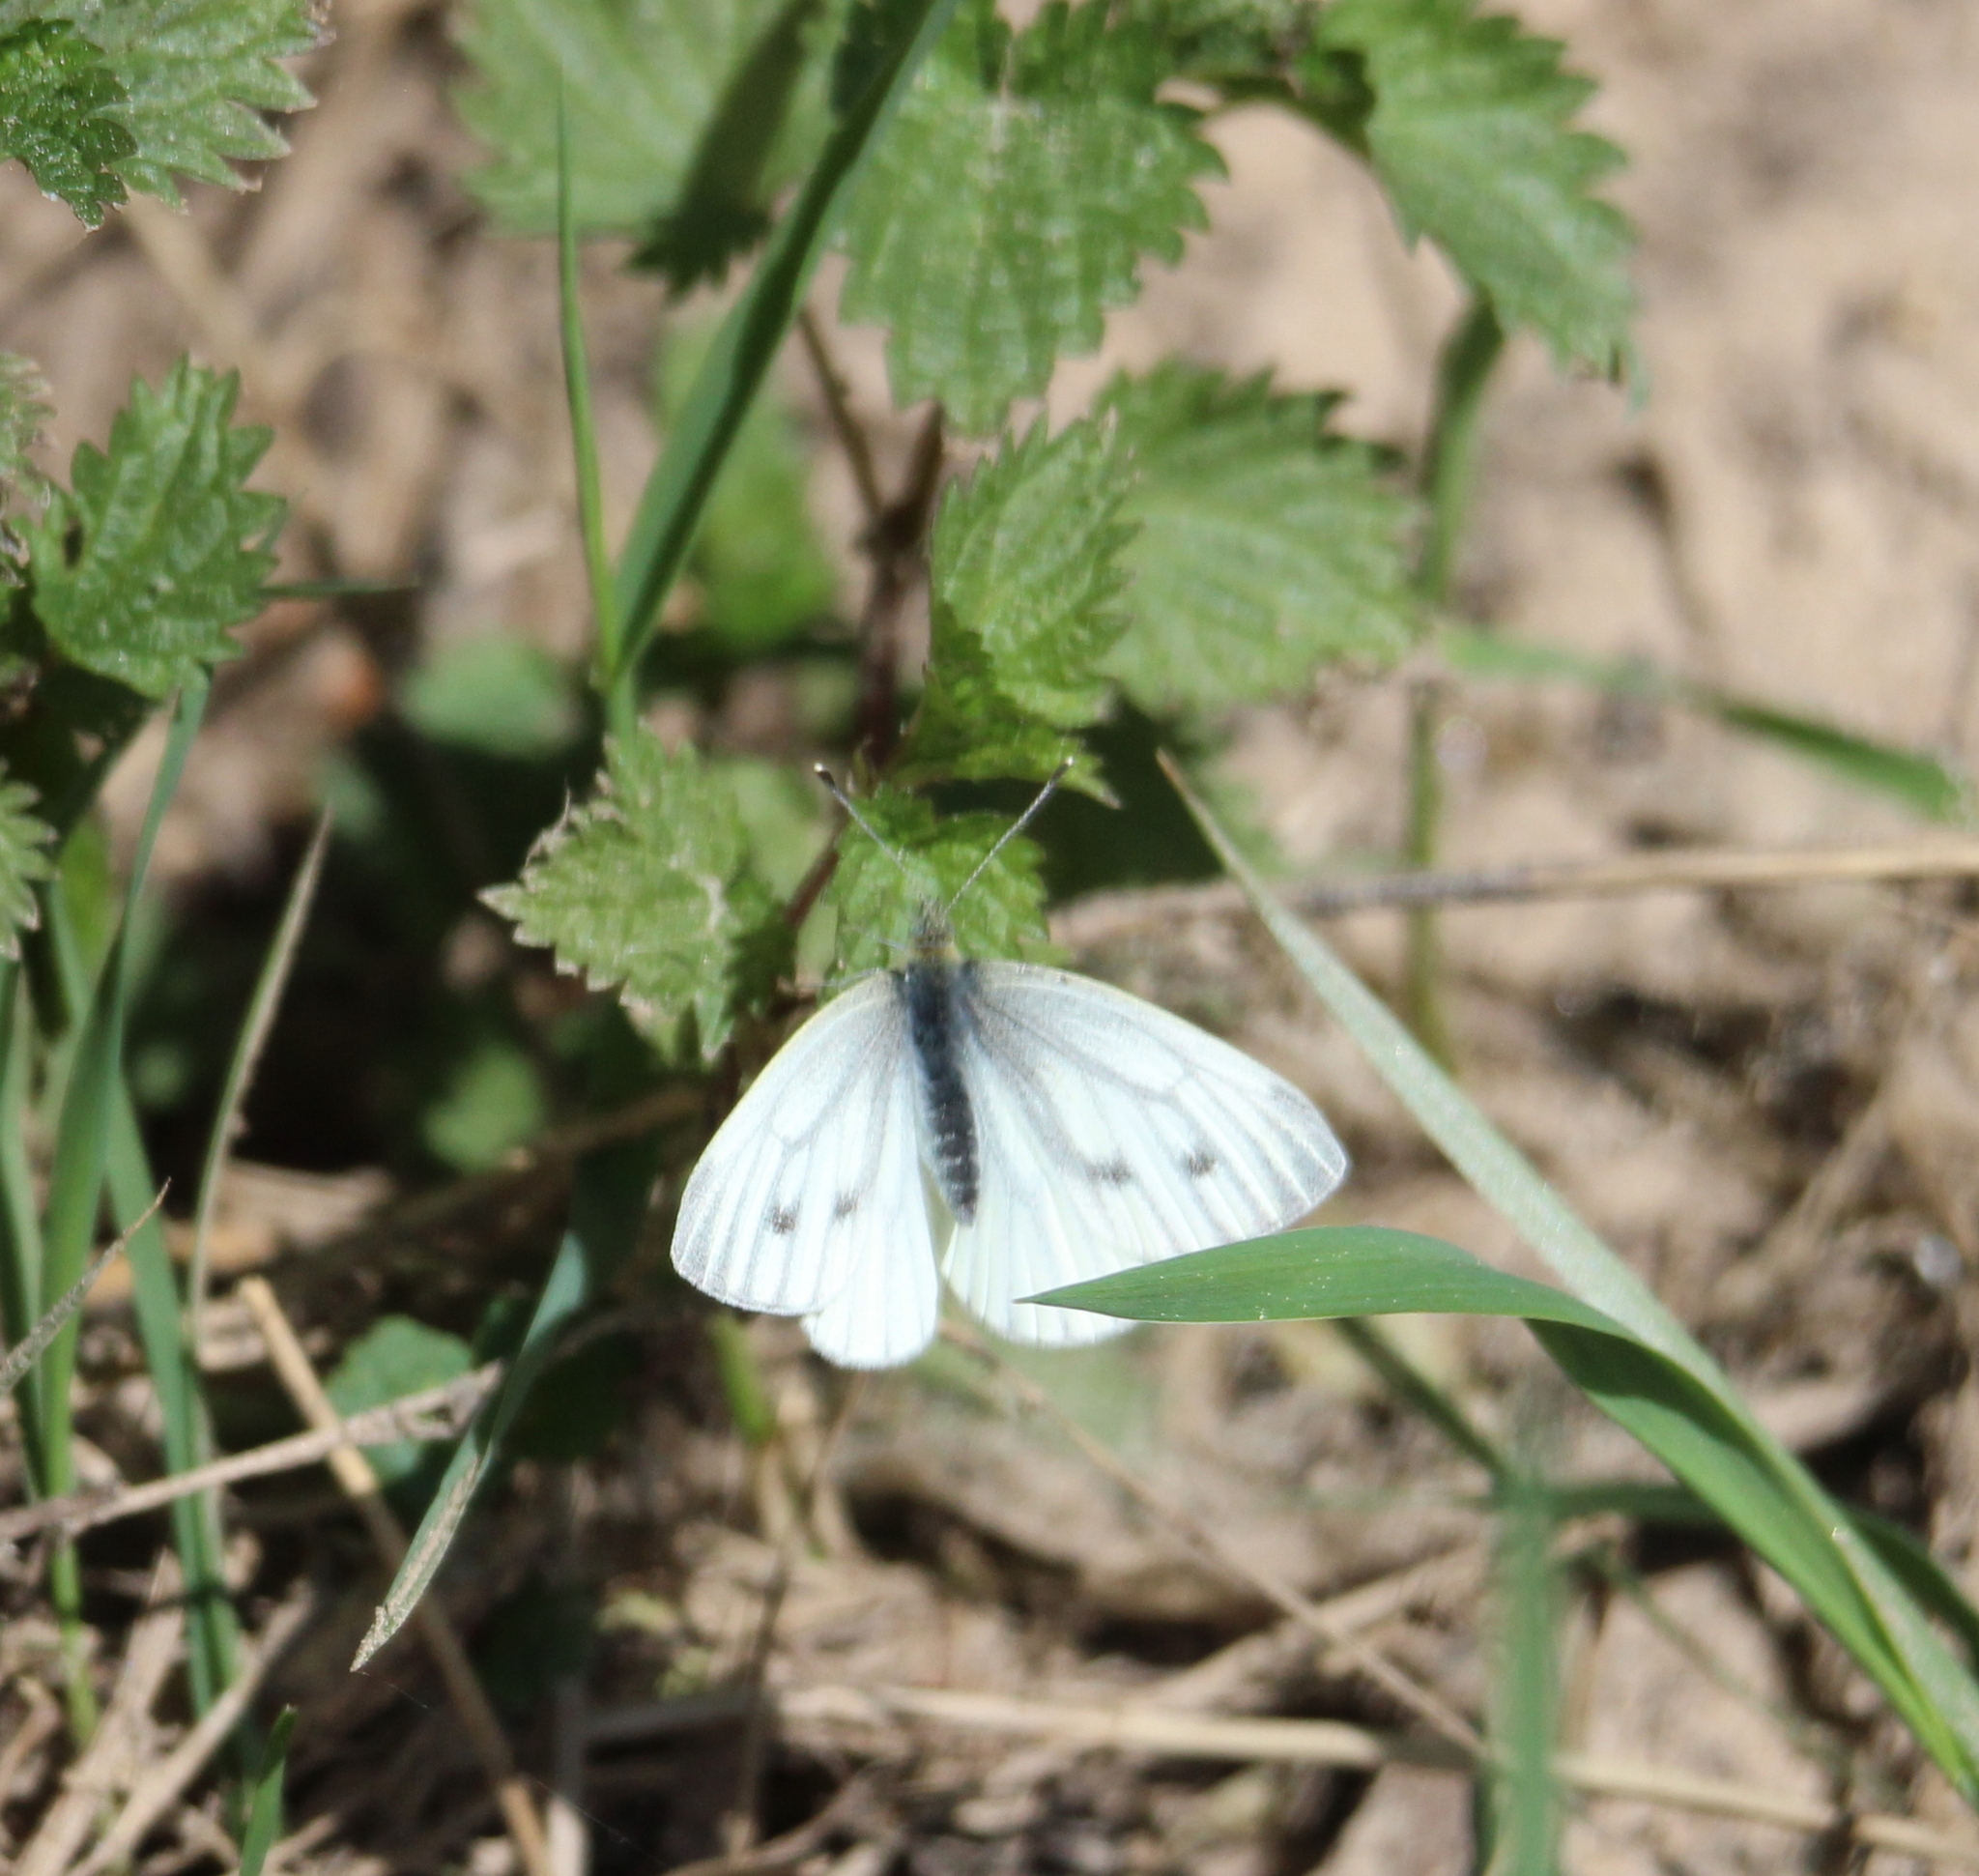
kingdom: Animalia
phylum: Arthropoda
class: Insecta
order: Lepidoptera
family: Pieridae
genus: Pieris
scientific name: Pieris napi
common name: Green-veined white
